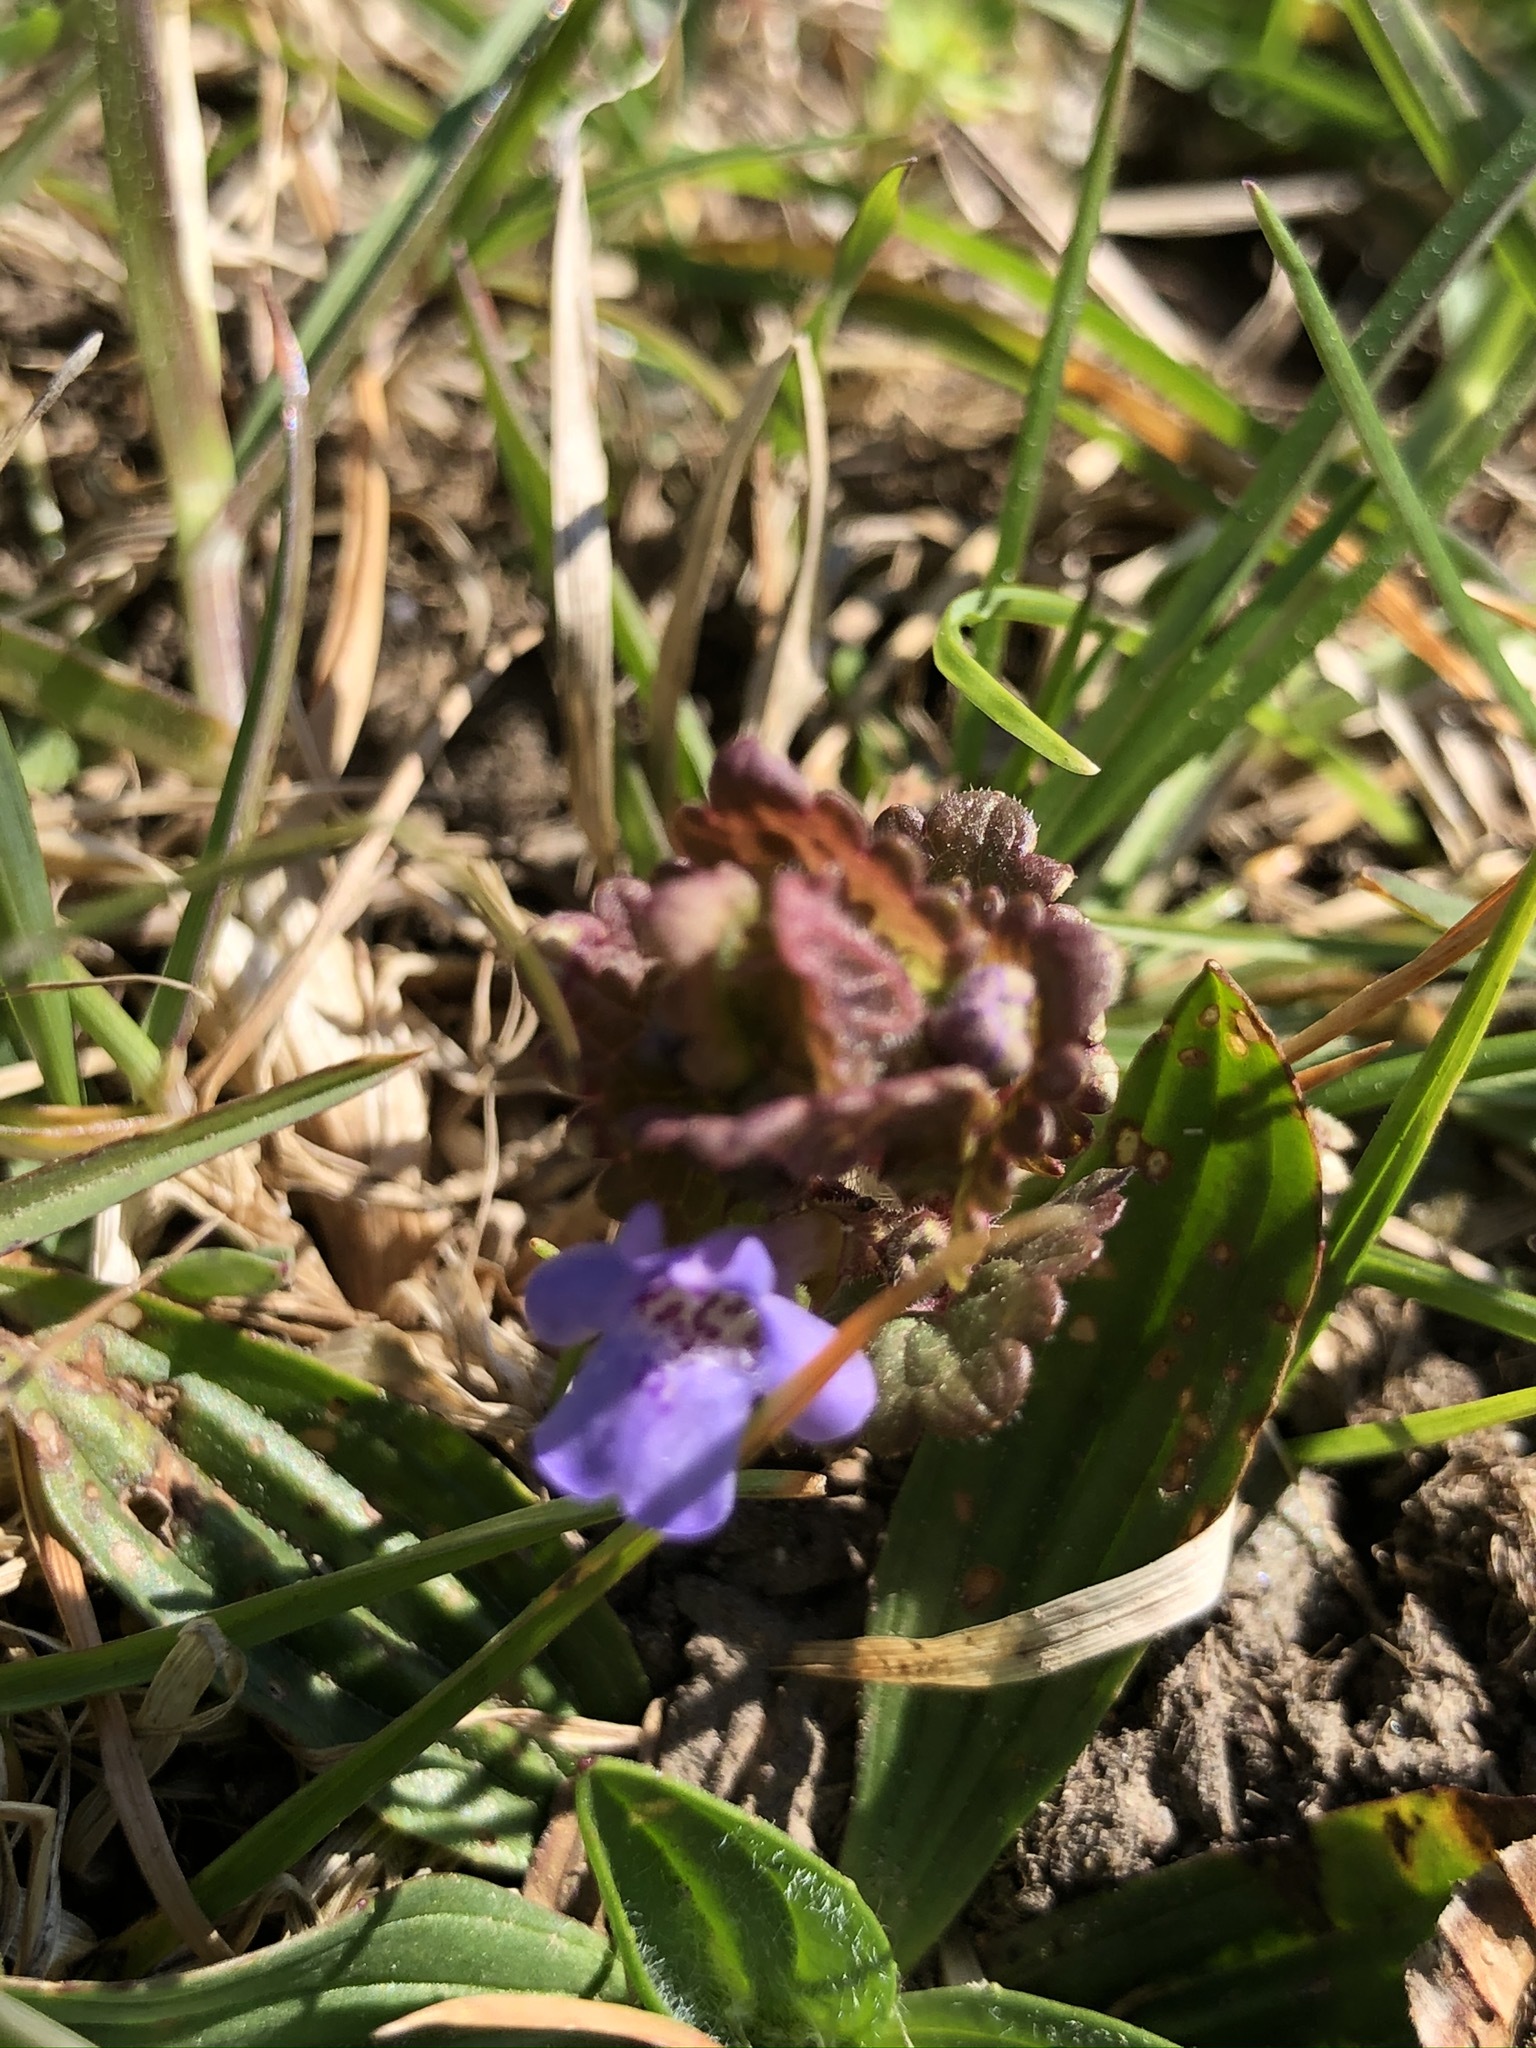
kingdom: Plantae
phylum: Tracheophyta
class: Magnoliopsida
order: Lamiales
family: Lamiaceae
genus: Glechoma
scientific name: Glechoma hederacea
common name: Ground ivy
